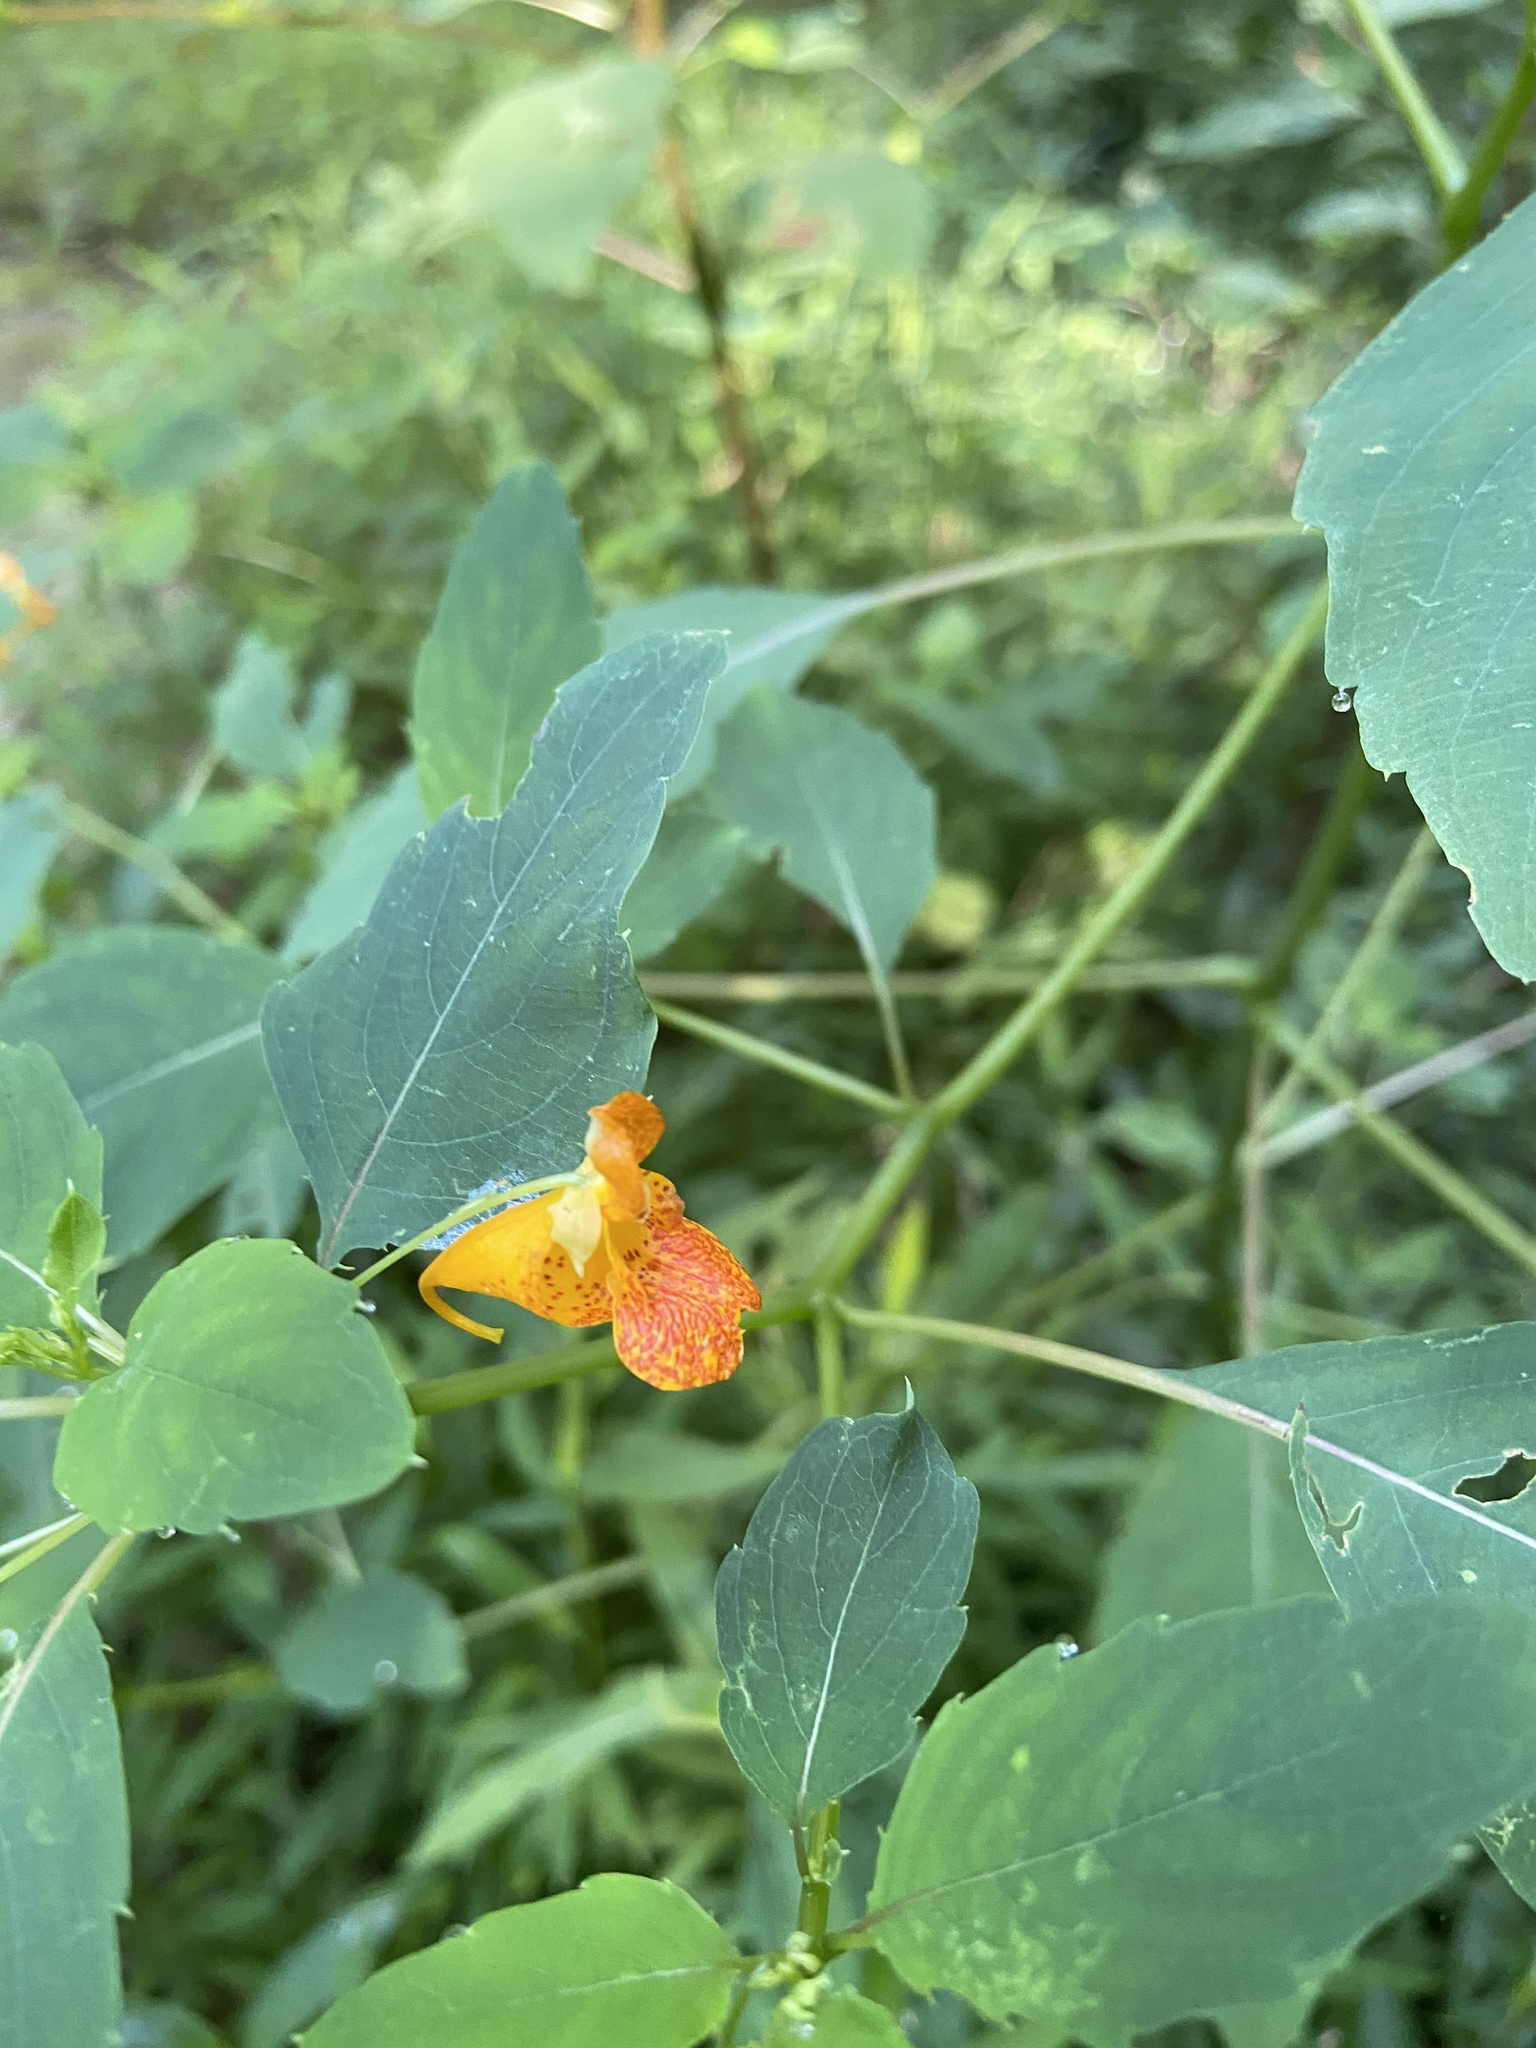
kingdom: Plantae
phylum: Tracheophyta
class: Magnoliopsida
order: Ericales
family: Balsaminaceae
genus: Impatiens
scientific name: Impatiens capensis
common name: Orange balsam
